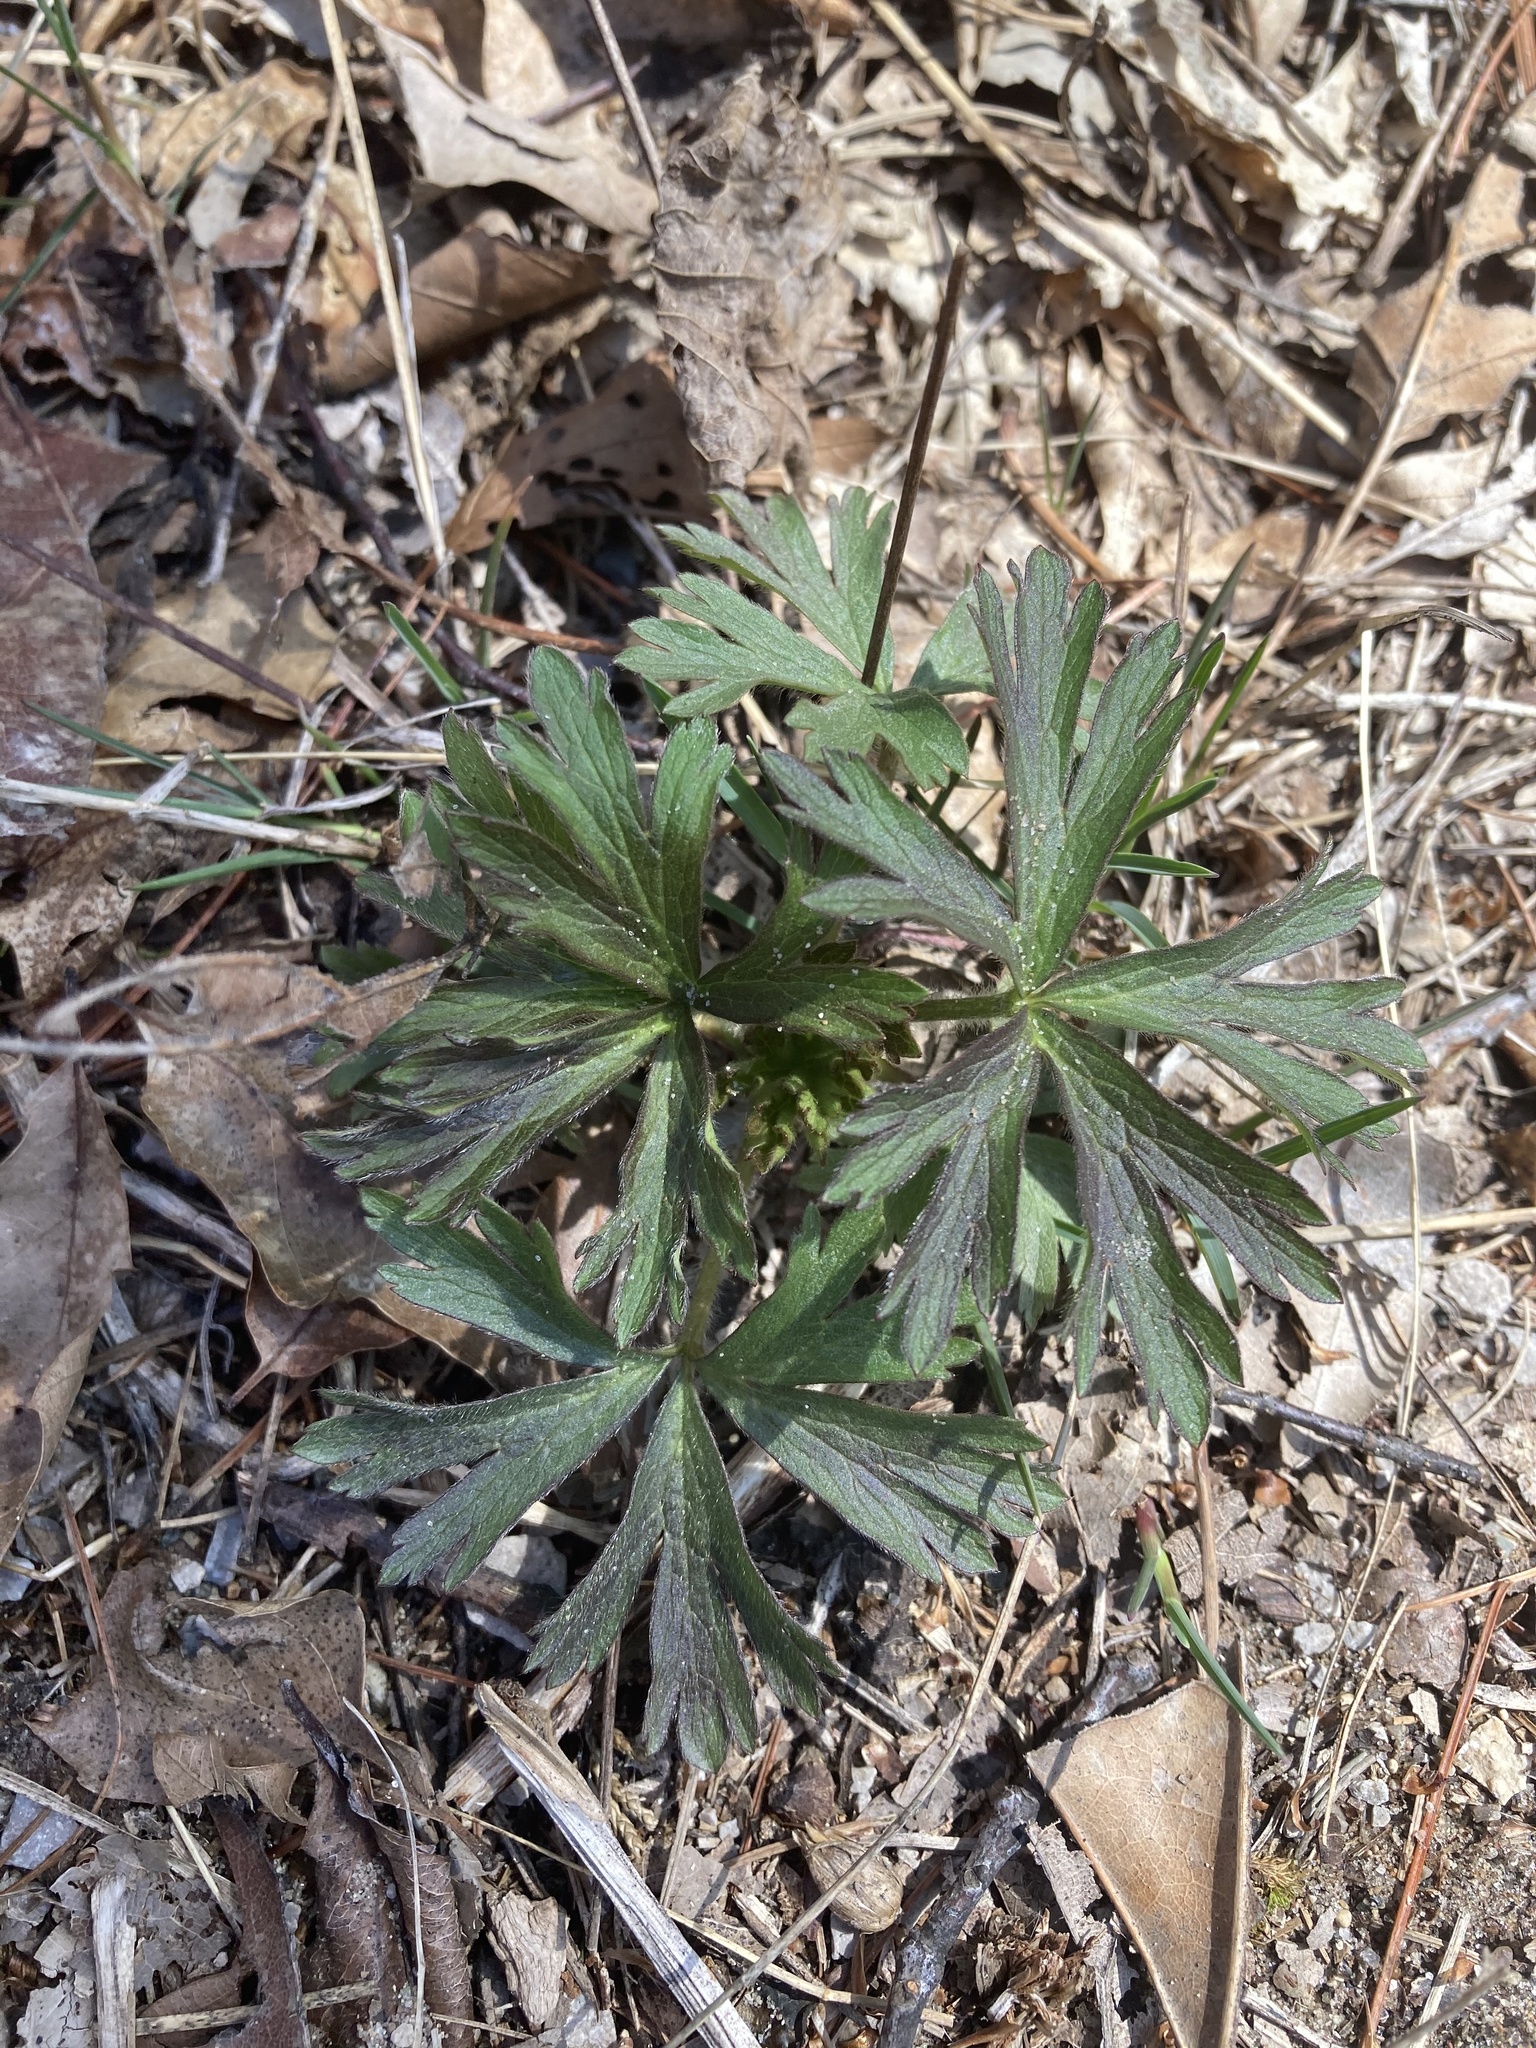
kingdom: Plantae
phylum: Tracheophyta
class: Magnoliopsida
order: Ranunculales
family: Ranunculaceae
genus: Anemone
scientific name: Anemone virginiana
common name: Tall anemone
